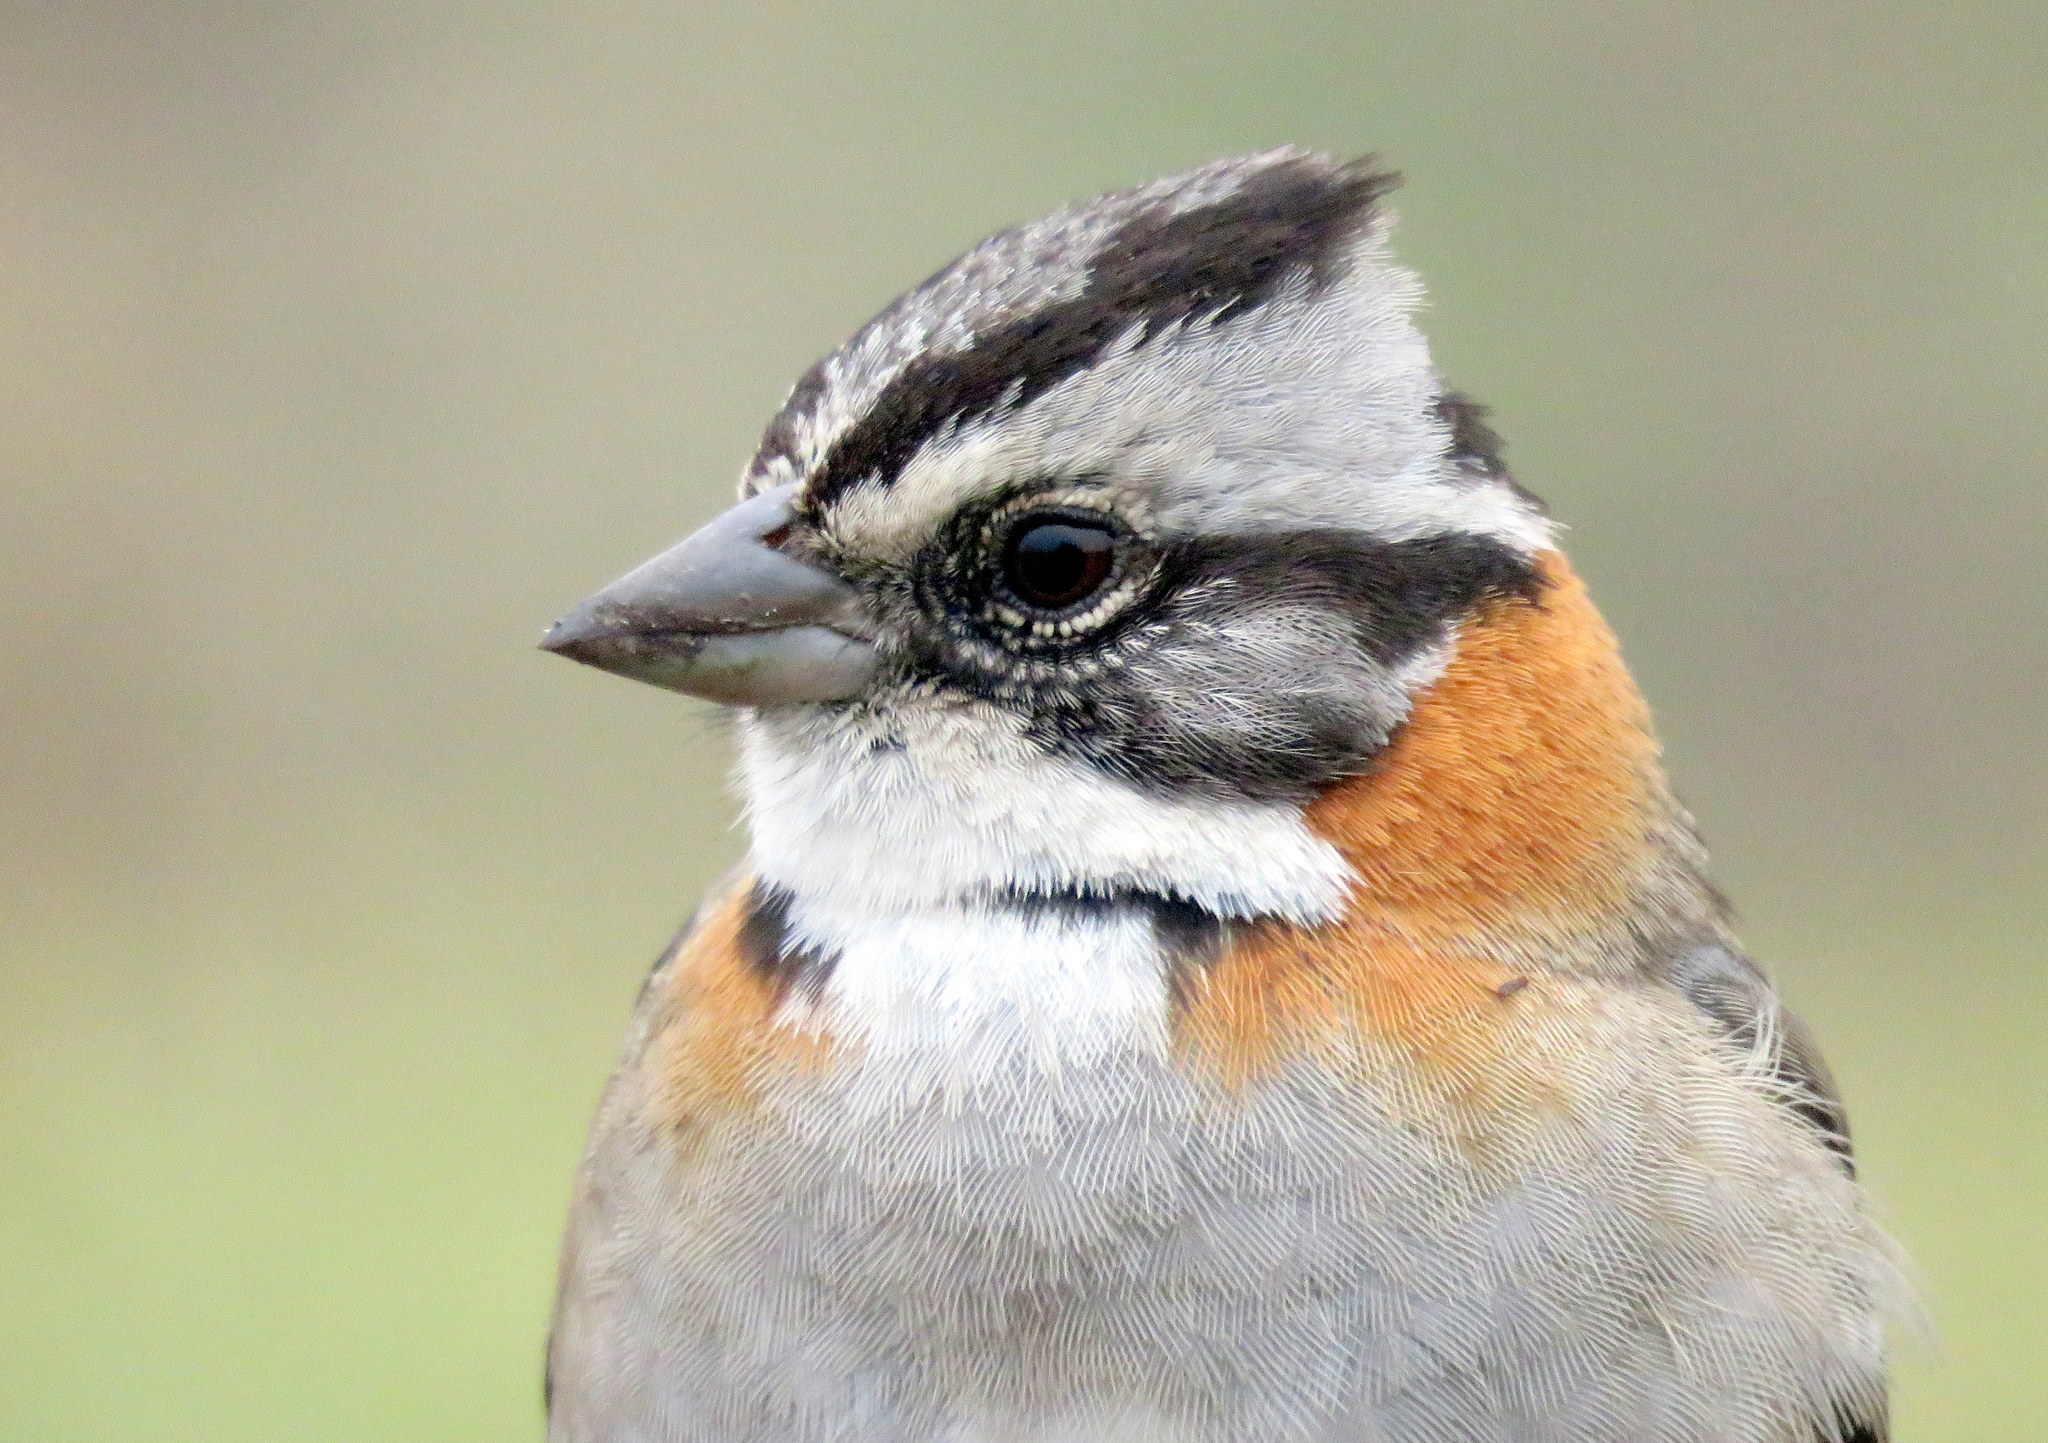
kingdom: Animalia
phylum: Chordata
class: Aves
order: Passeriformes
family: Passerellidae
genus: Zonotrichia
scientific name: Zonotrichia capensis
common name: Rufous-collared sparrow
